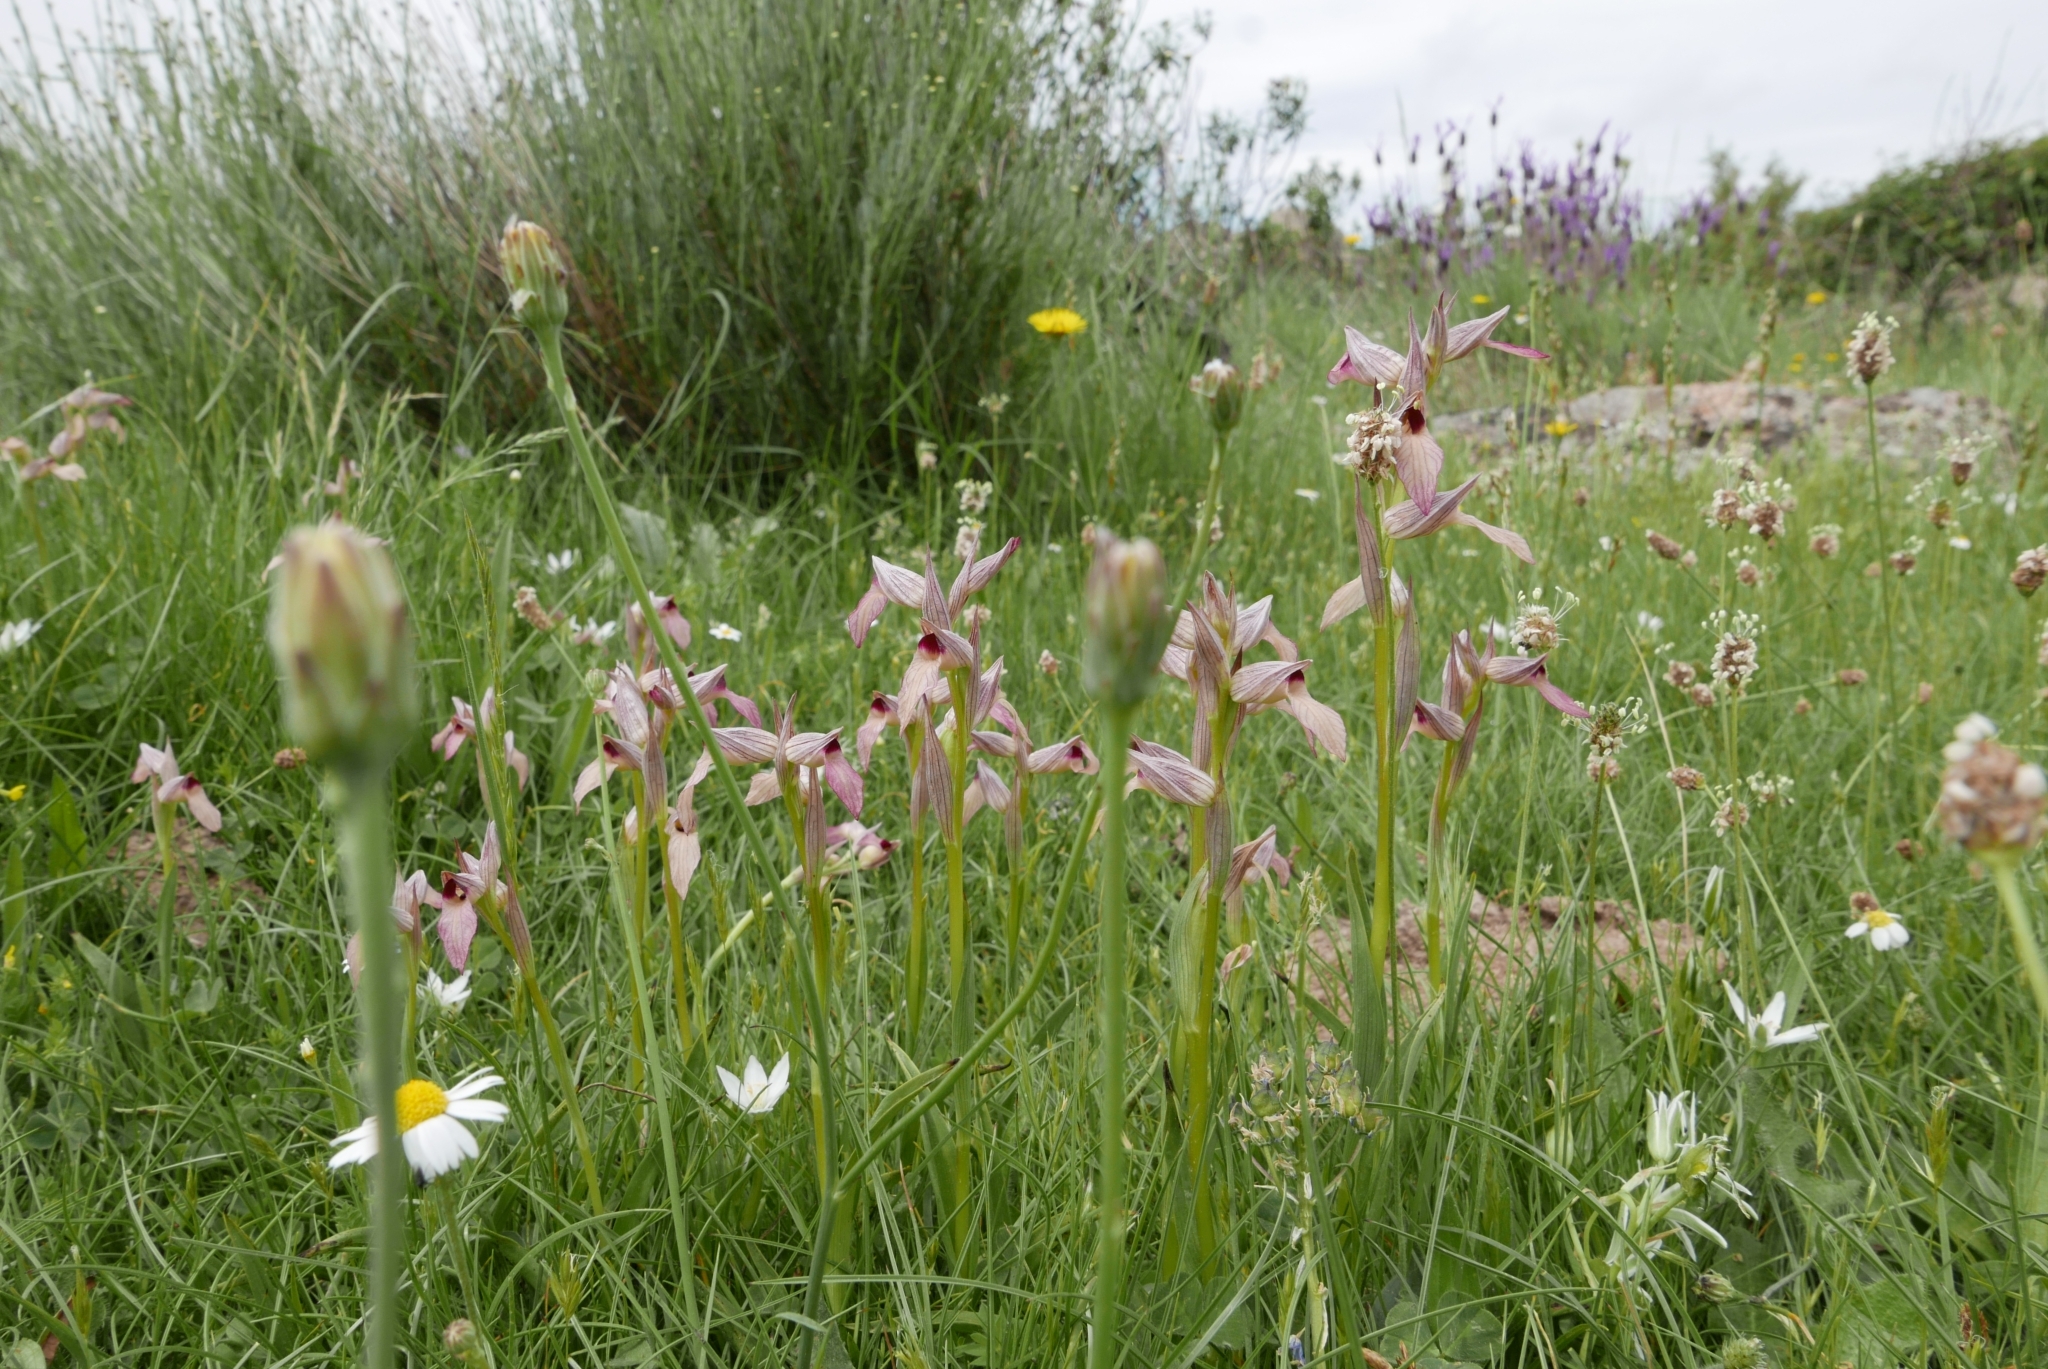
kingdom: Plantae
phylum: Tracheophyta
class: Liliopsida
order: Asparagales
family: Orchidaceae
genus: Serapias
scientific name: Serapias lingua
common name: Tongue-orchid
